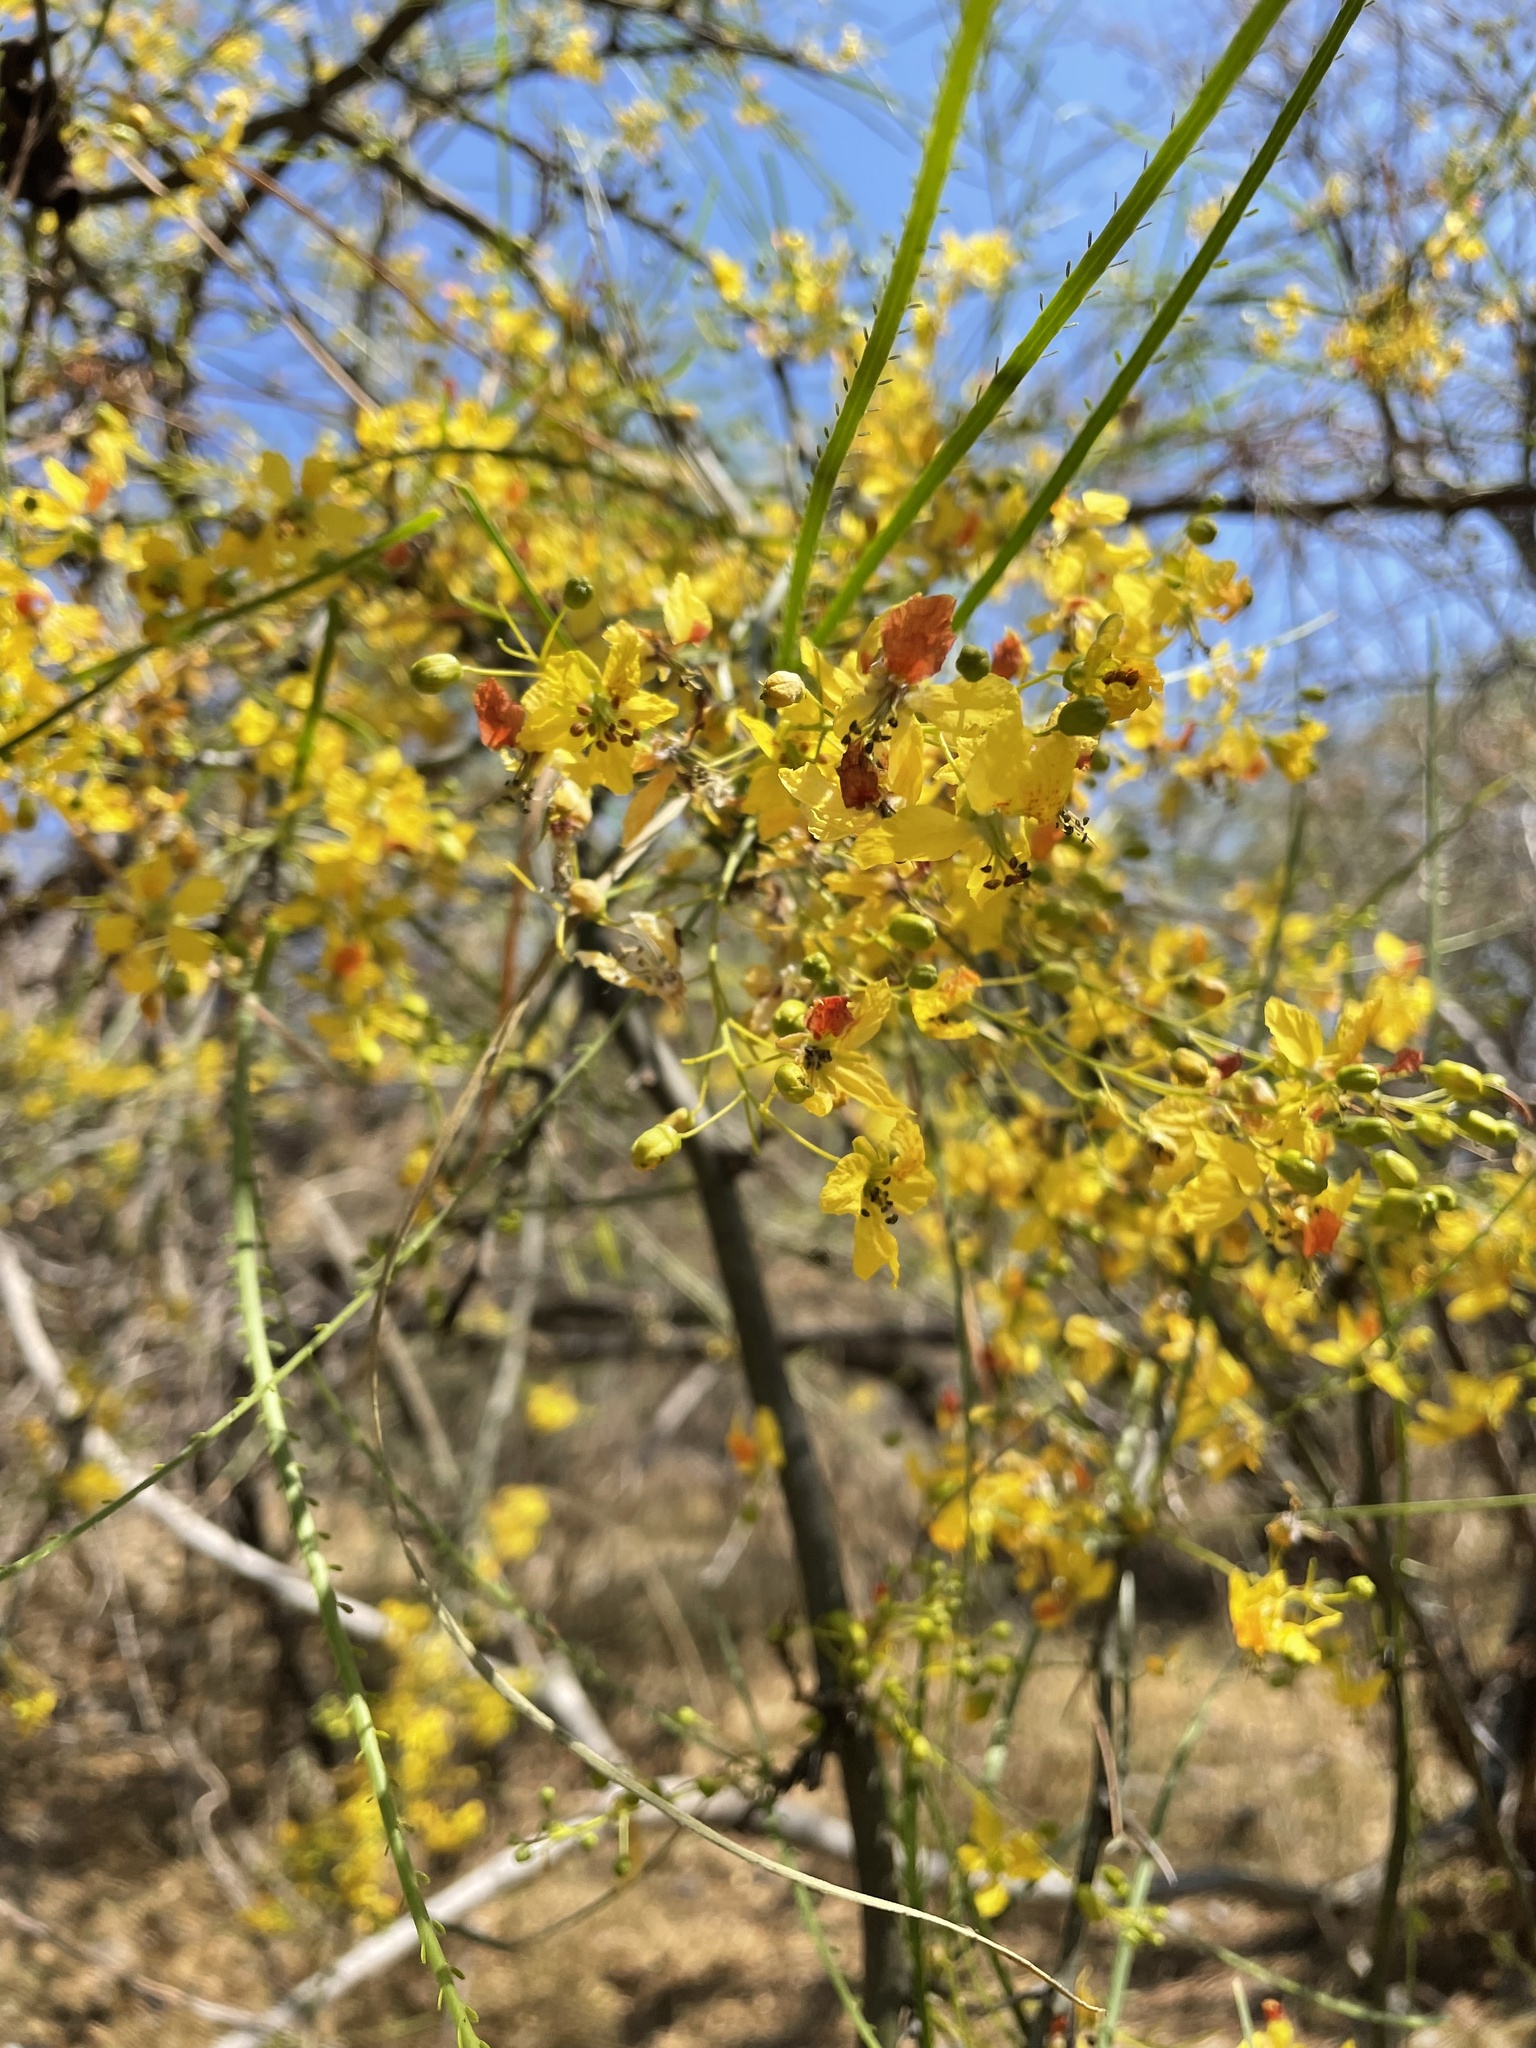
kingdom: Plantae
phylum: Tracheophyta
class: Magnoliopsida
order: Fabales
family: Fabaceae
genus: Parkinsonia
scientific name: Parkinsonia aculeata
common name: Jerusalem thorn
